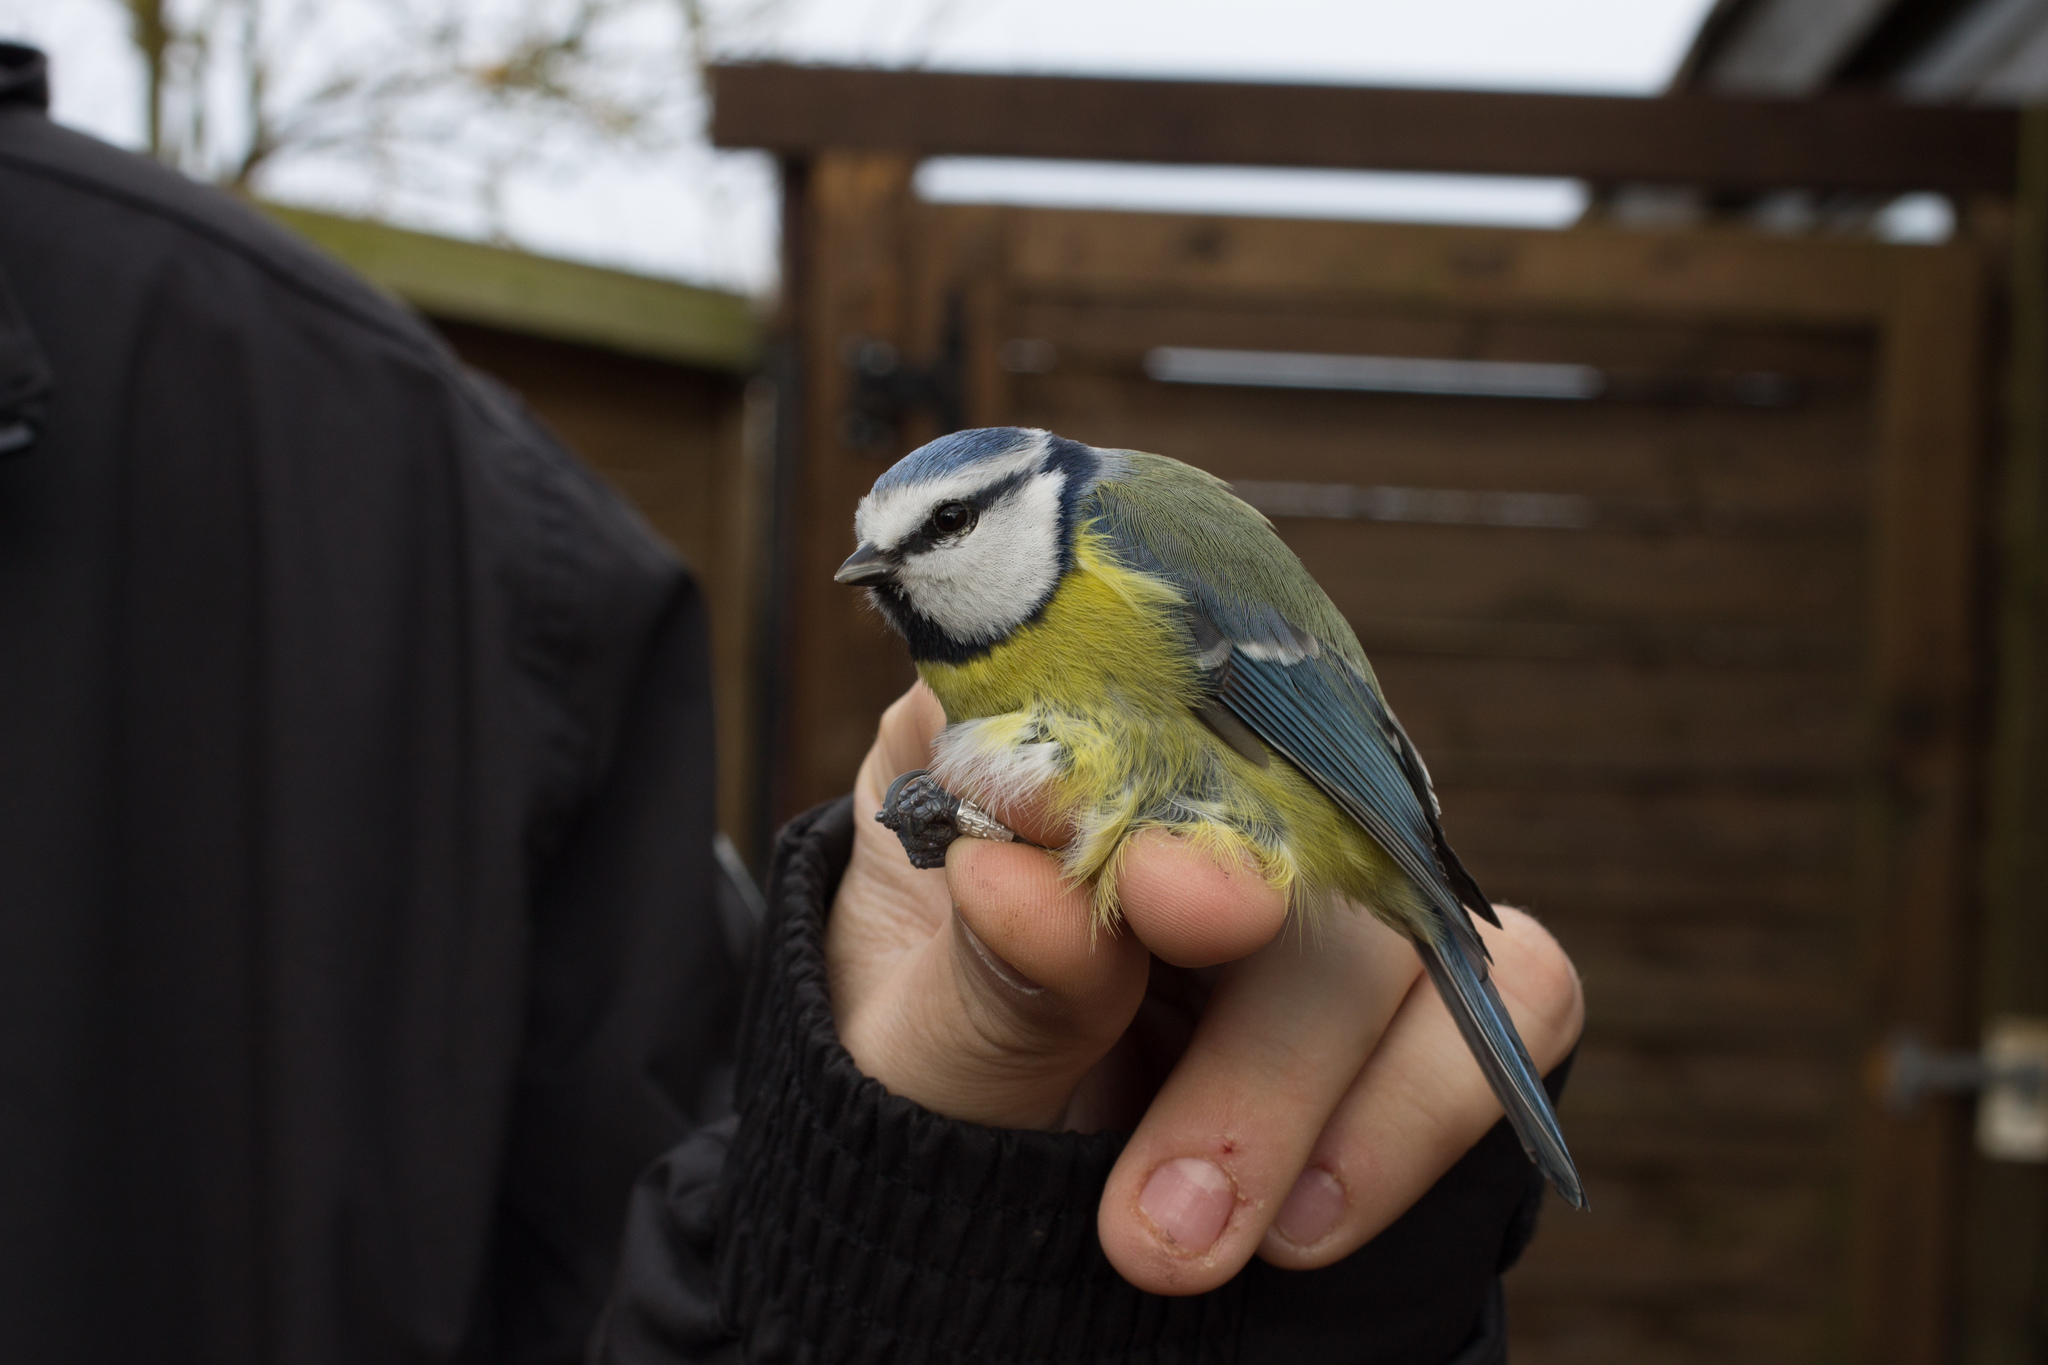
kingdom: Animalia
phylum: Chordata
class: Aves
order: Passeriformes
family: Paridae
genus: Cyanistes
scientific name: Cyanistes caeruleus
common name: Eurasian blue tit
